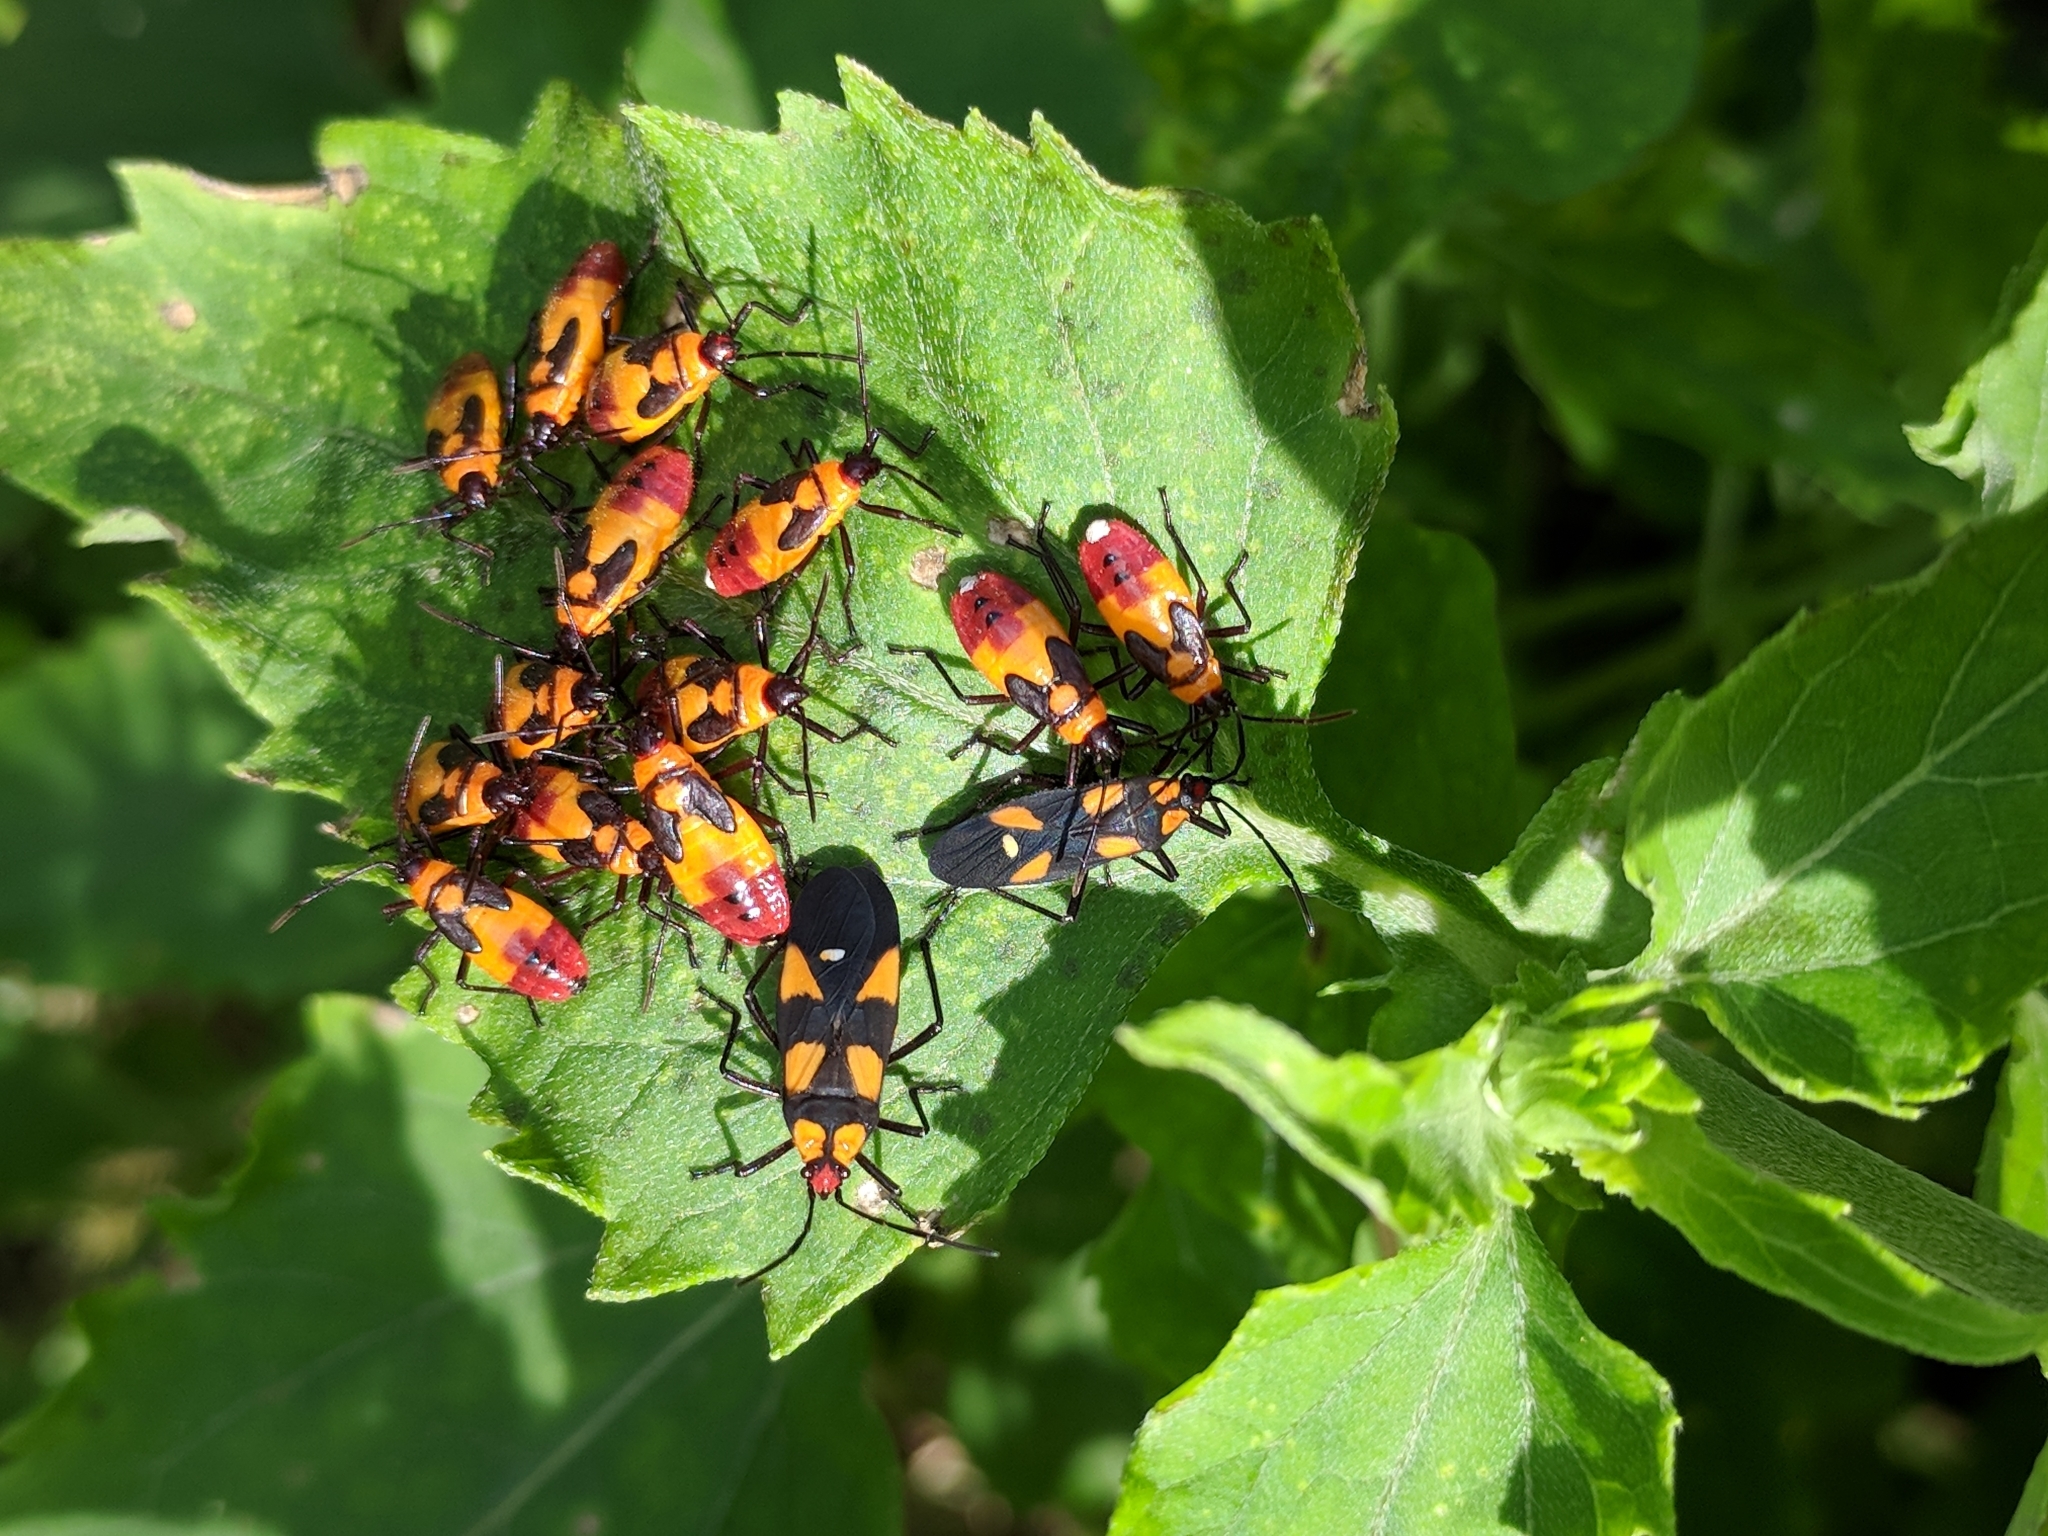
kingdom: Animalia
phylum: Arthropoda
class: Insecta
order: Hemiptera
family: Lygaeidae
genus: Oncopeltus
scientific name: Oncopeltus sexmaculatus
